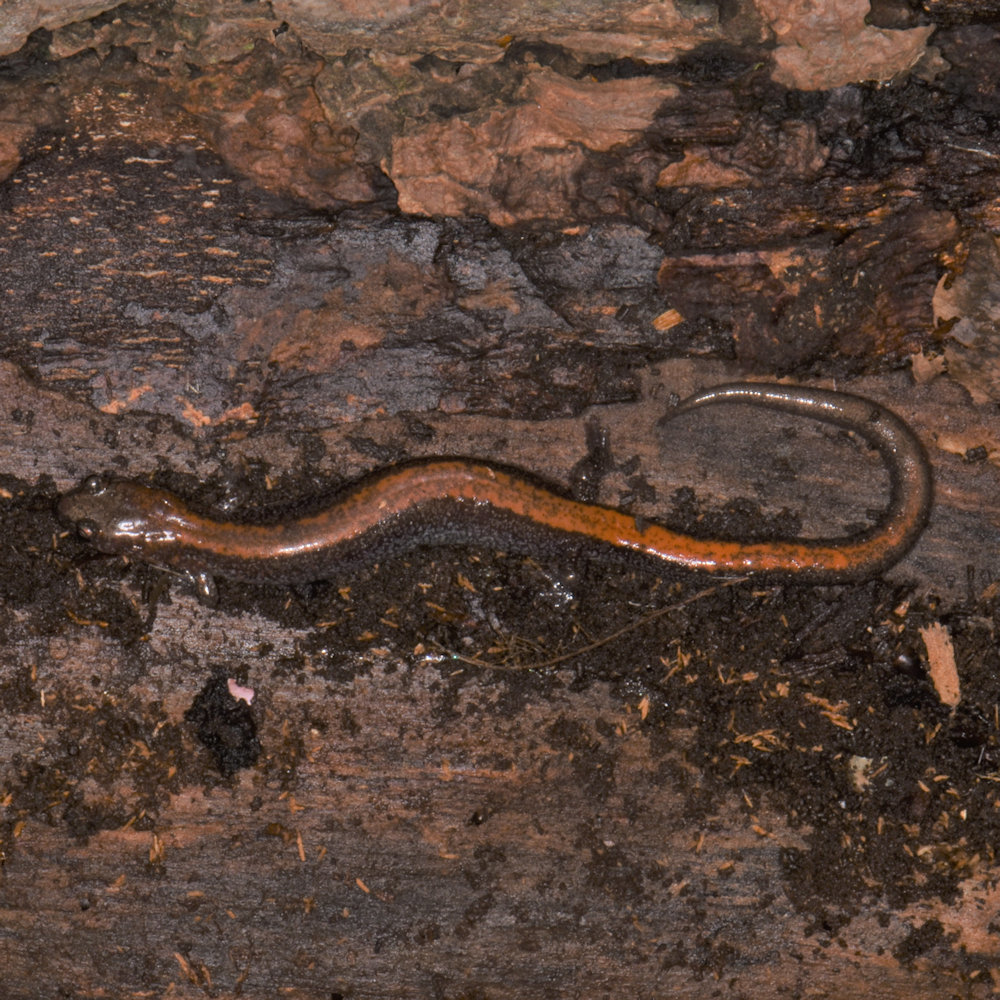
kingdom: Animalia
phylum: Chordata
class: Amphibia
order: Caudata
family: Plethodontidae
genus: Plethodon
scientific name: Plethodon cinereus
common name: Redback salamander
